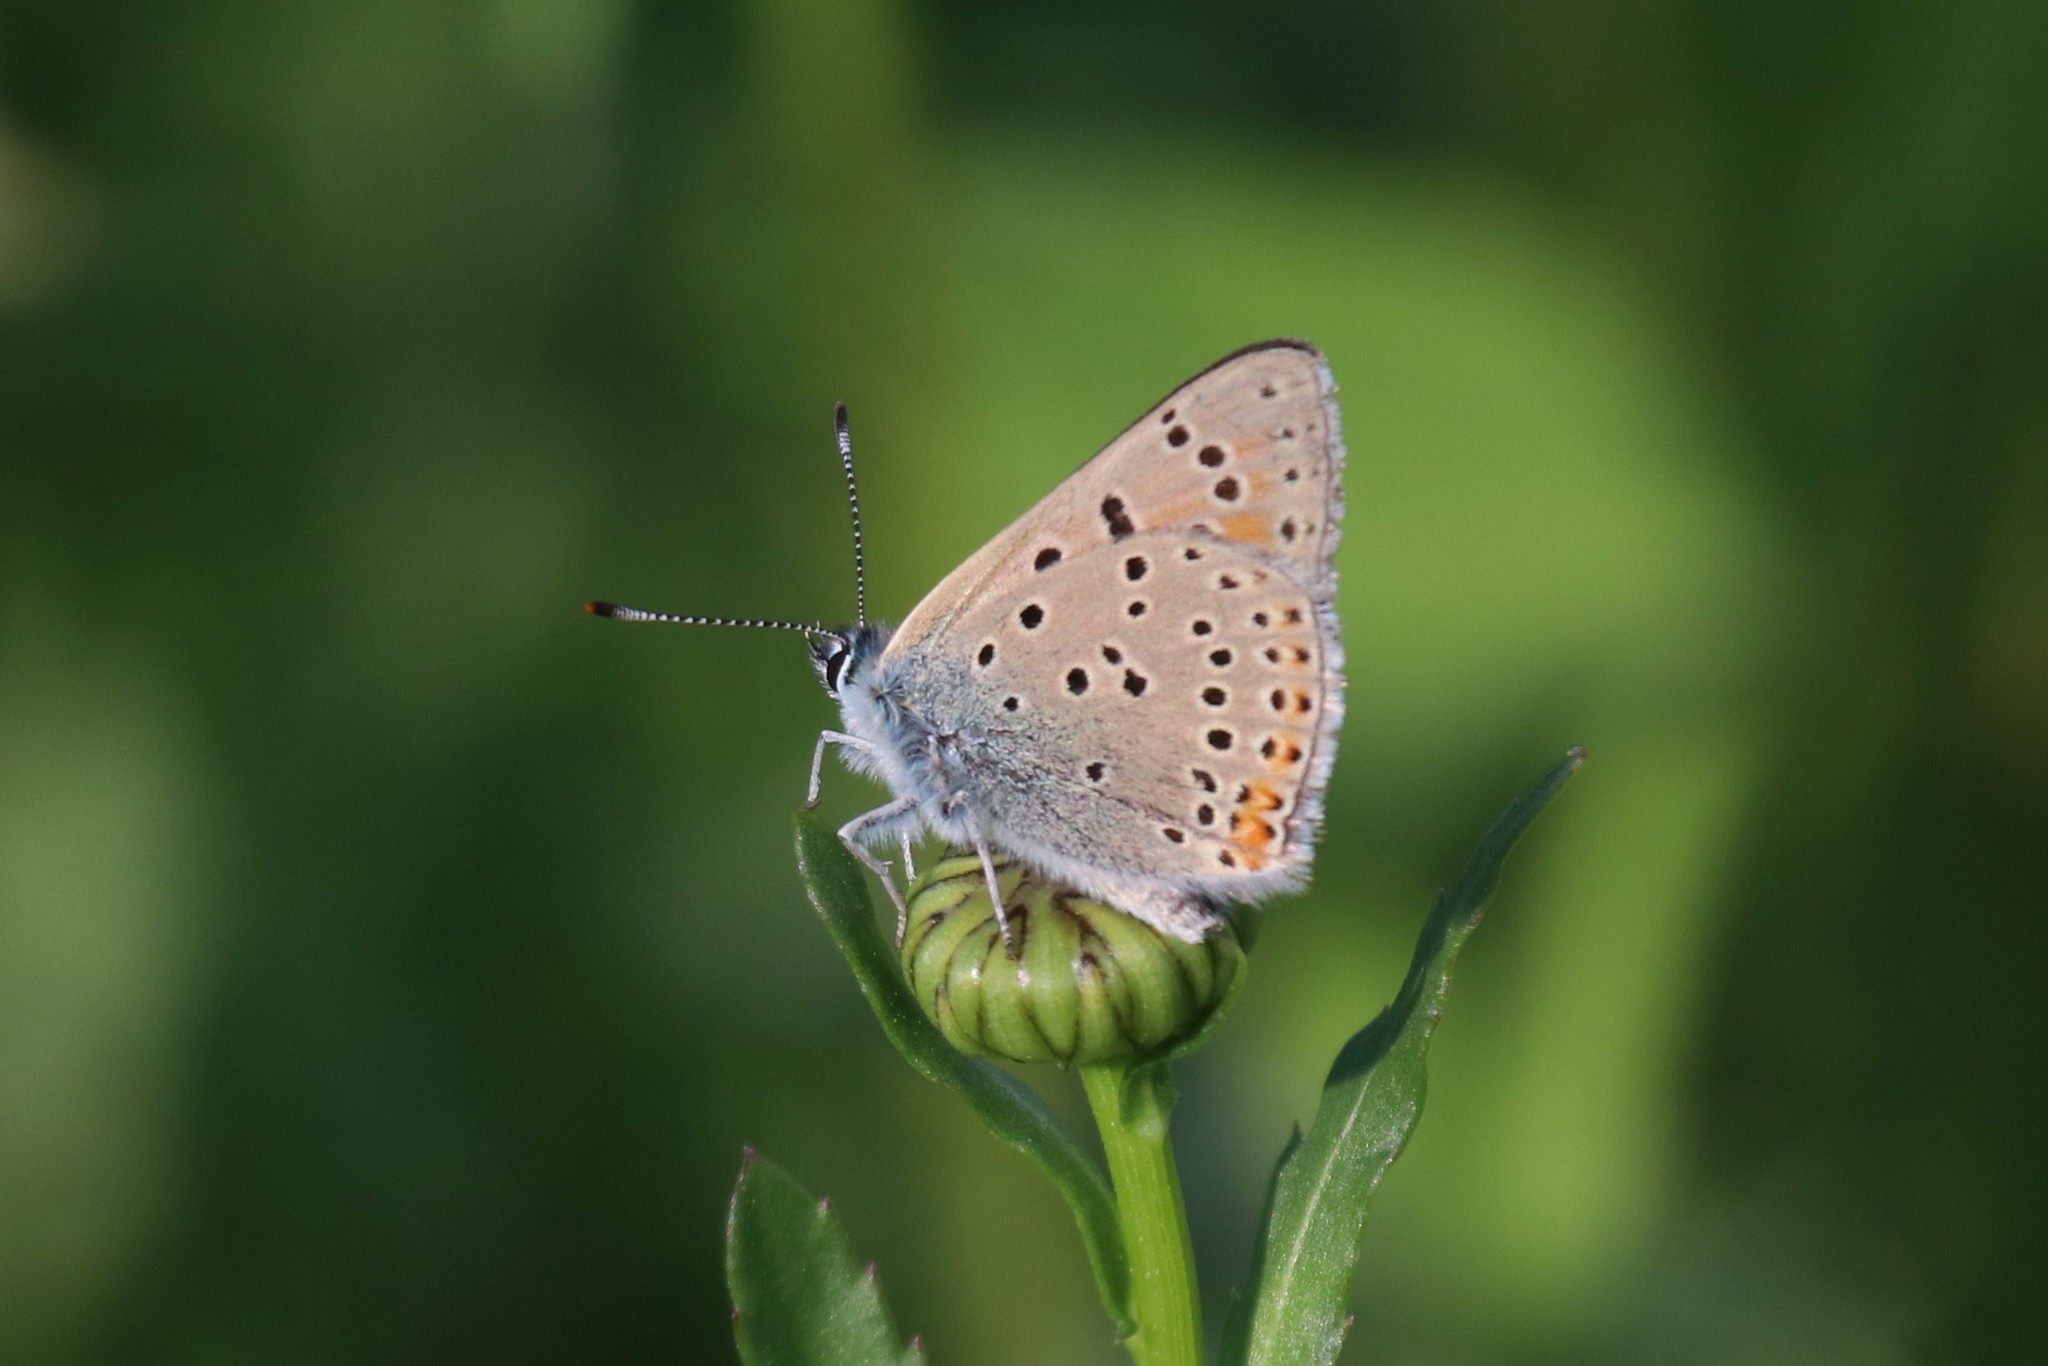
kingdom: Animalia
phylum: Arthropoda
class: Insecta
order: Lepidoptera
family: Lycaenidae
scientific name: Lycaenidae
